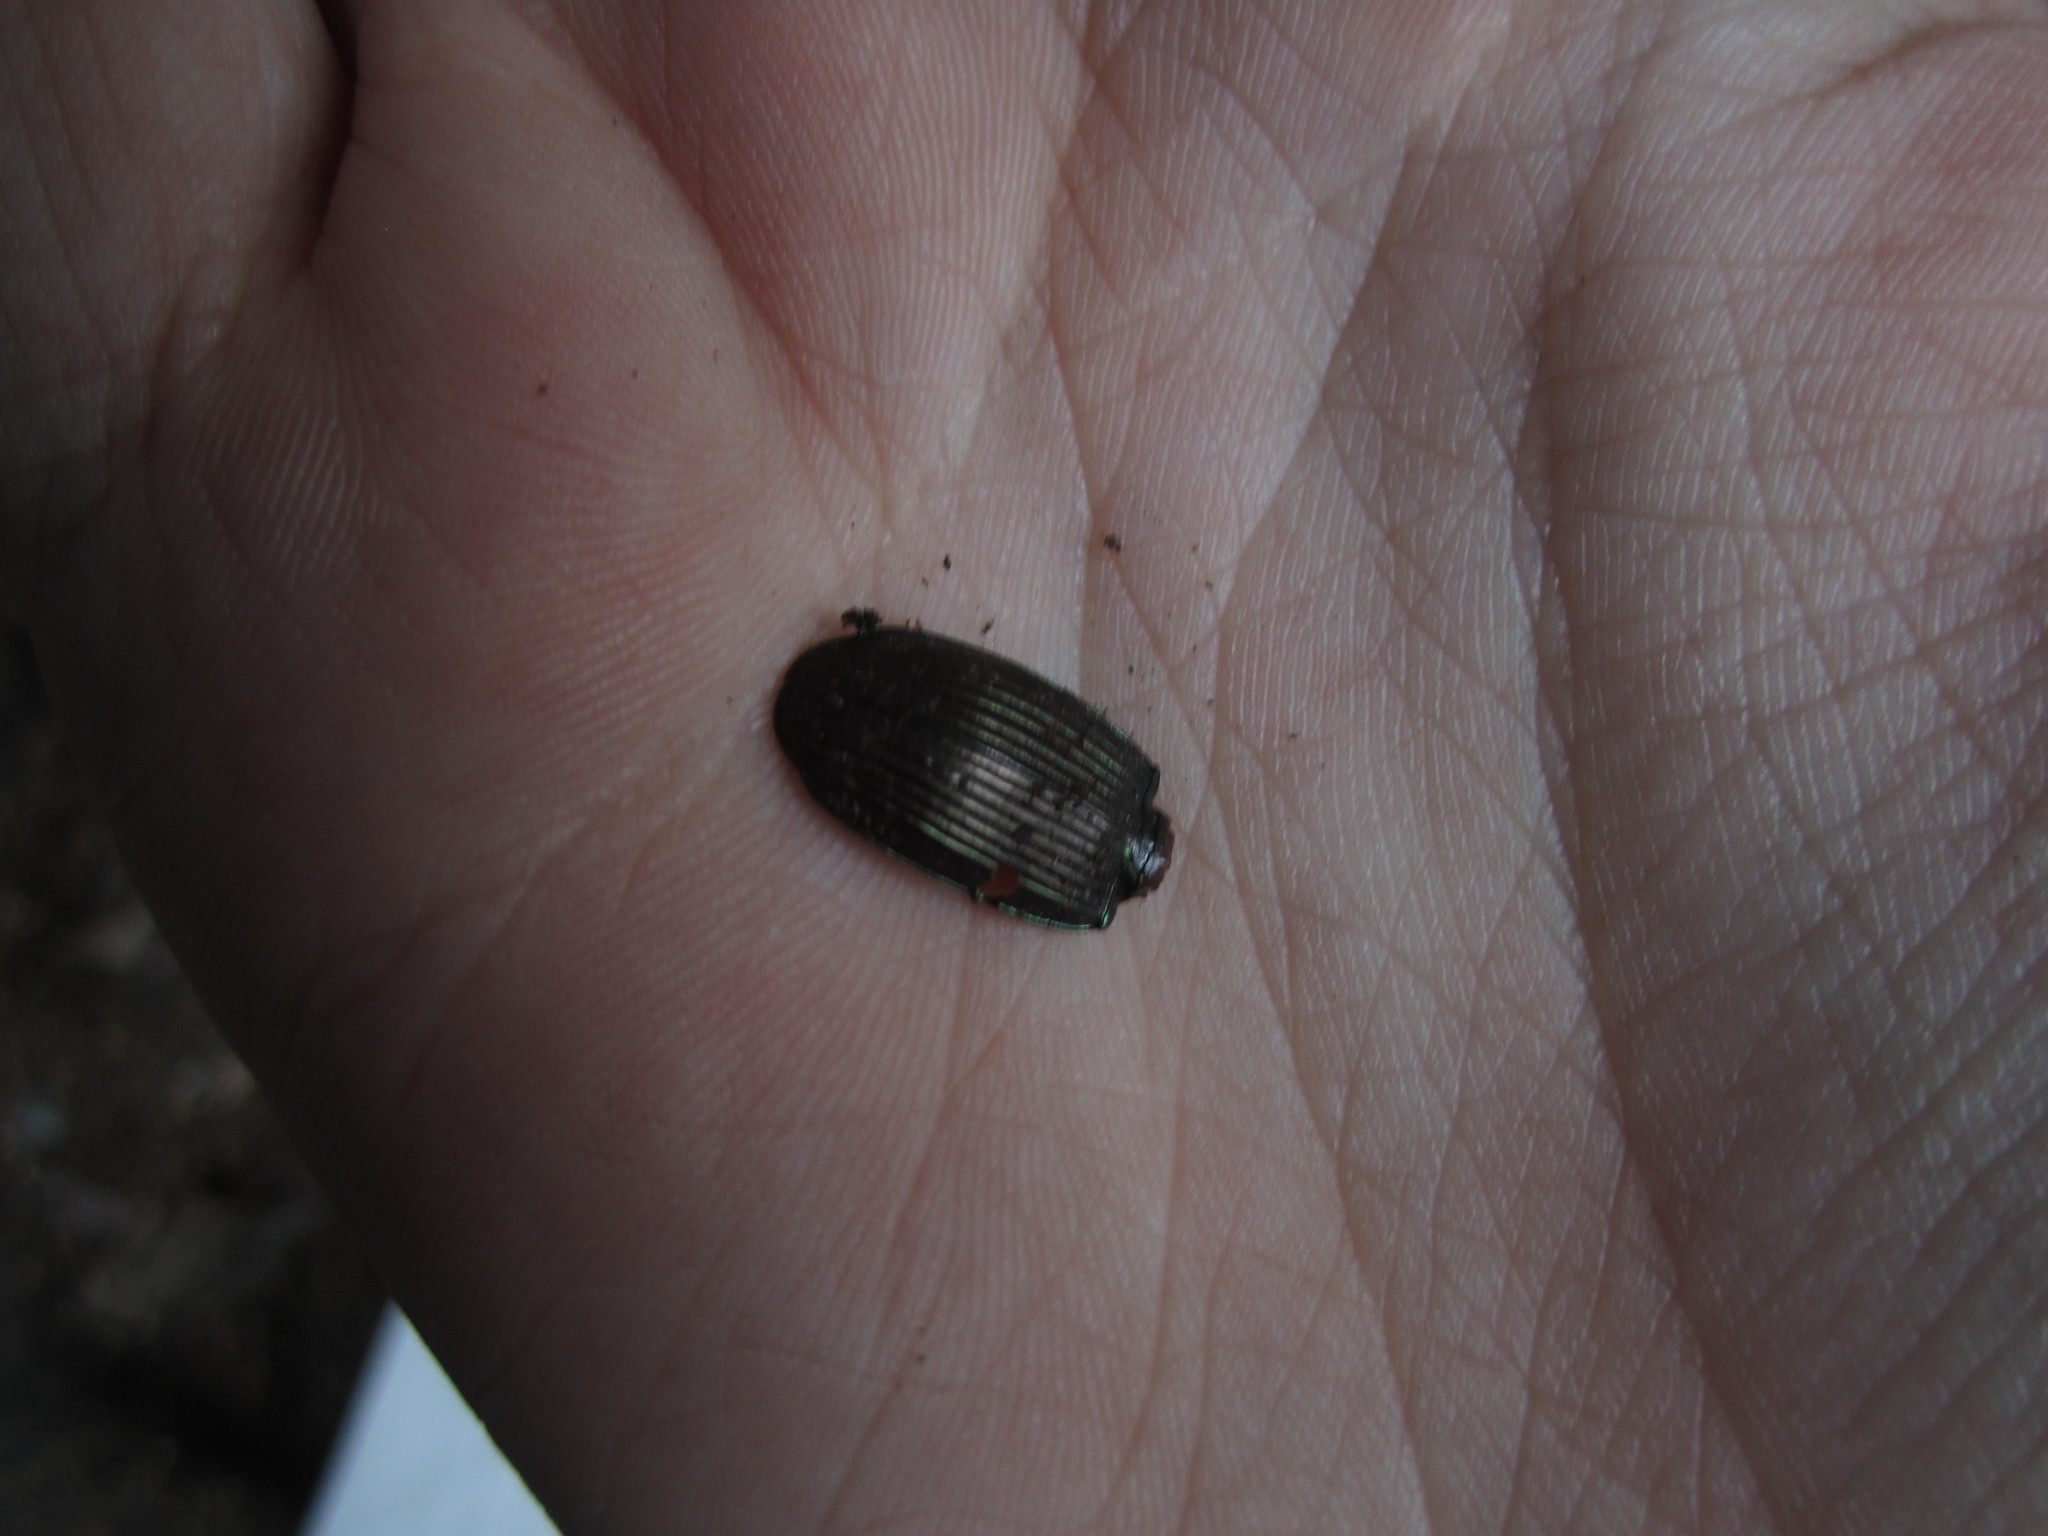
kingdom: Animalia
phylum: Arthropoda
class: Insecta
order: Coleoptera
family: Carabidae
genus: Megadromus
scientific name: Megadromus capito
